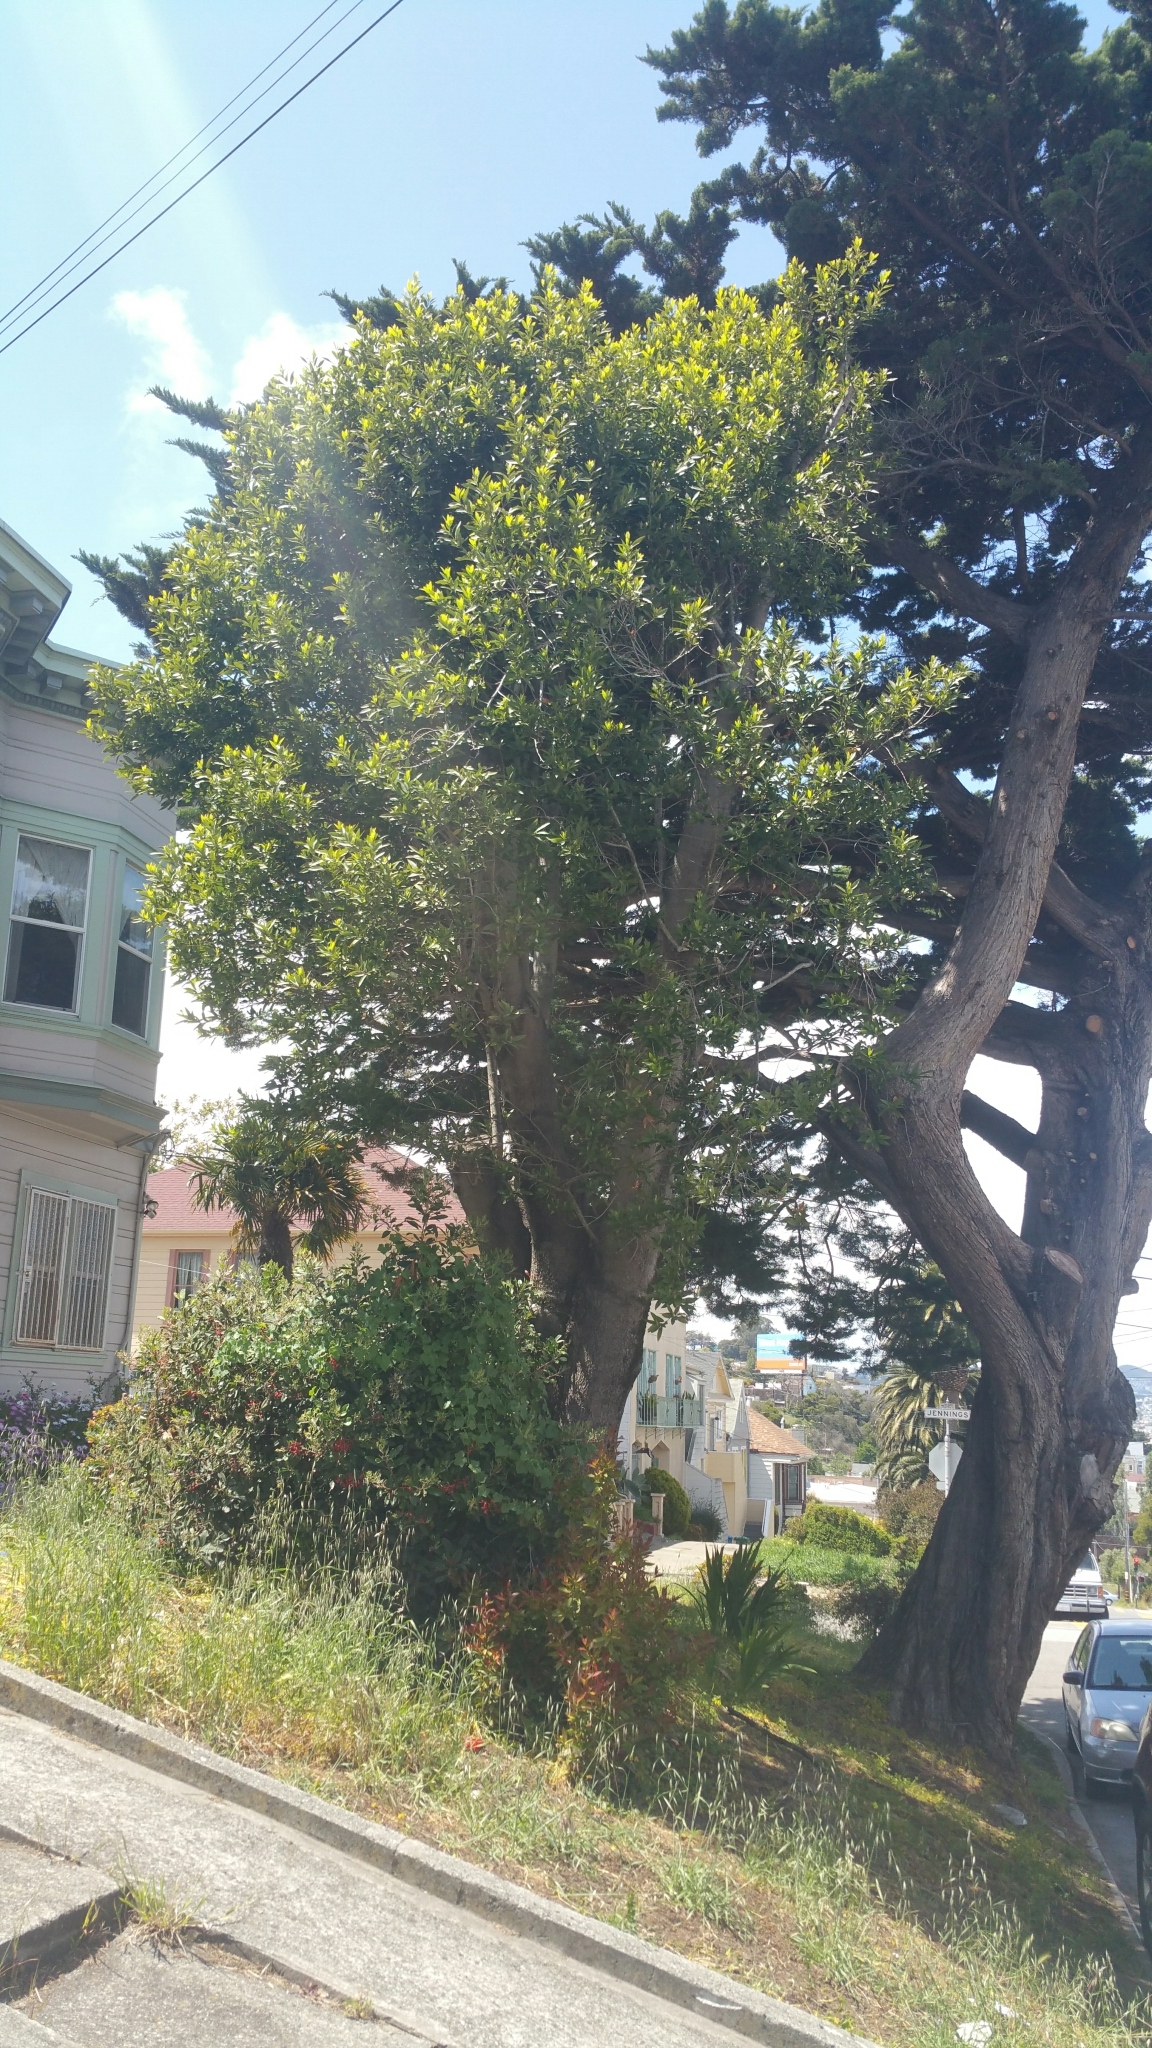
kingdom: Plantae
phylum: Tracheophyta
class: Magnoliopsida
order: Laurales
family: Lauraceae
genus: Umbellularia
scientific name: Umbellularia californica
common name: California bay
